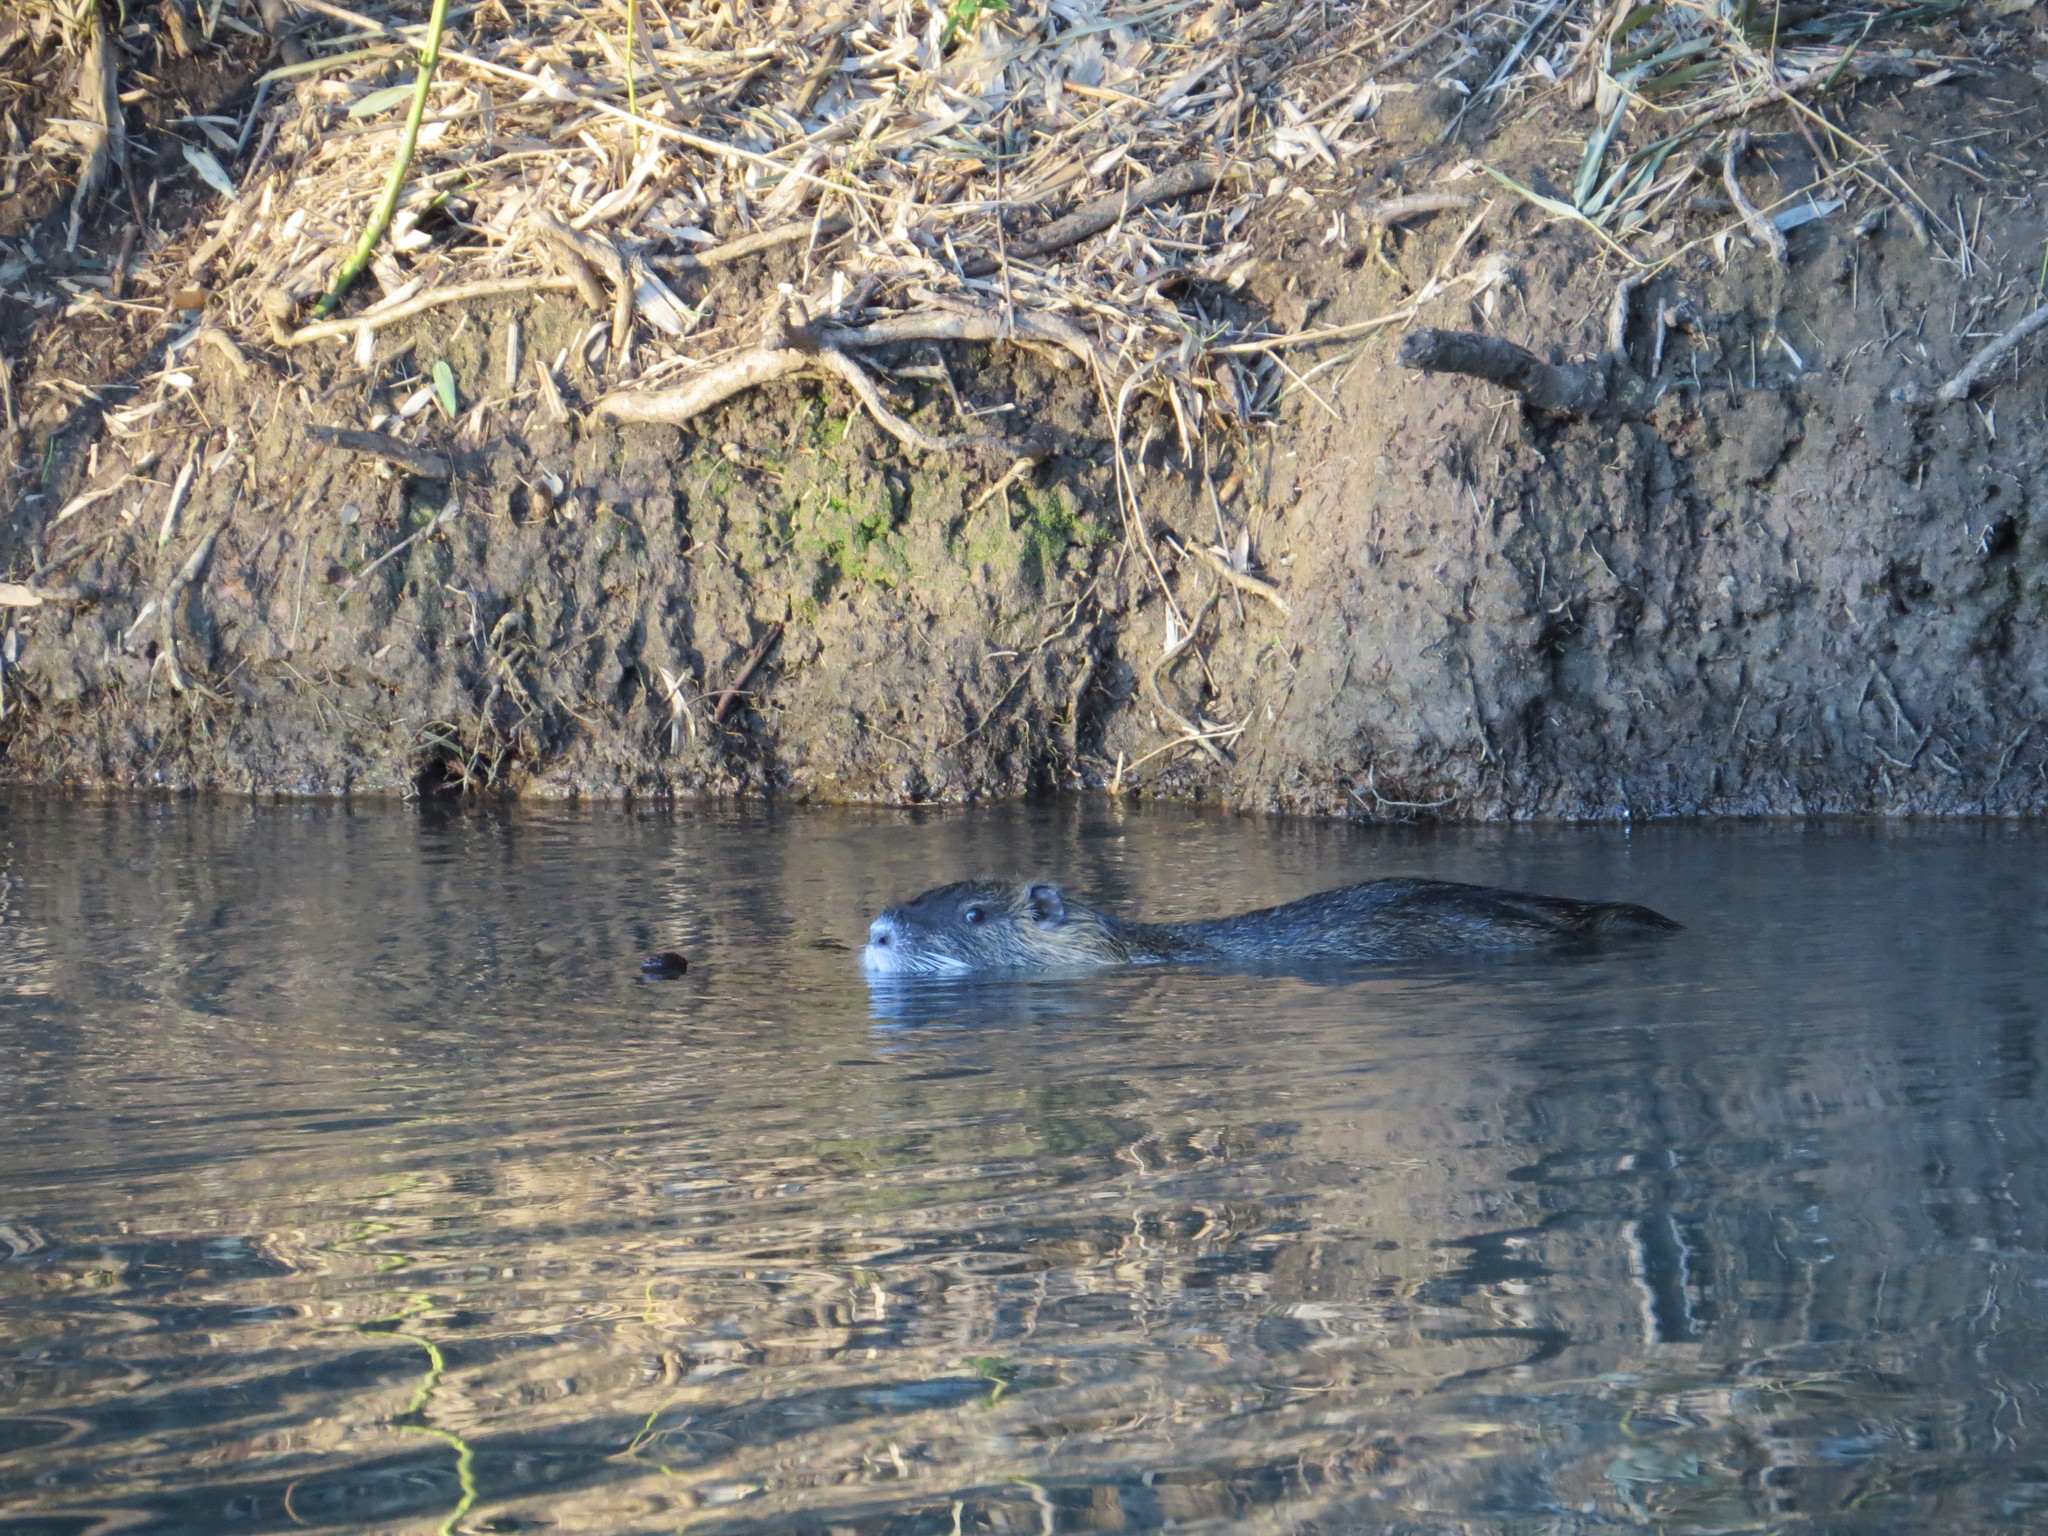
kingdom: Animalia
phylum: Chordata
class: Mammalia
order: Rodentia
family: Myocastoridae
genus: Myocastor
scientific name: Myocastor coypus
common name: Coypu
